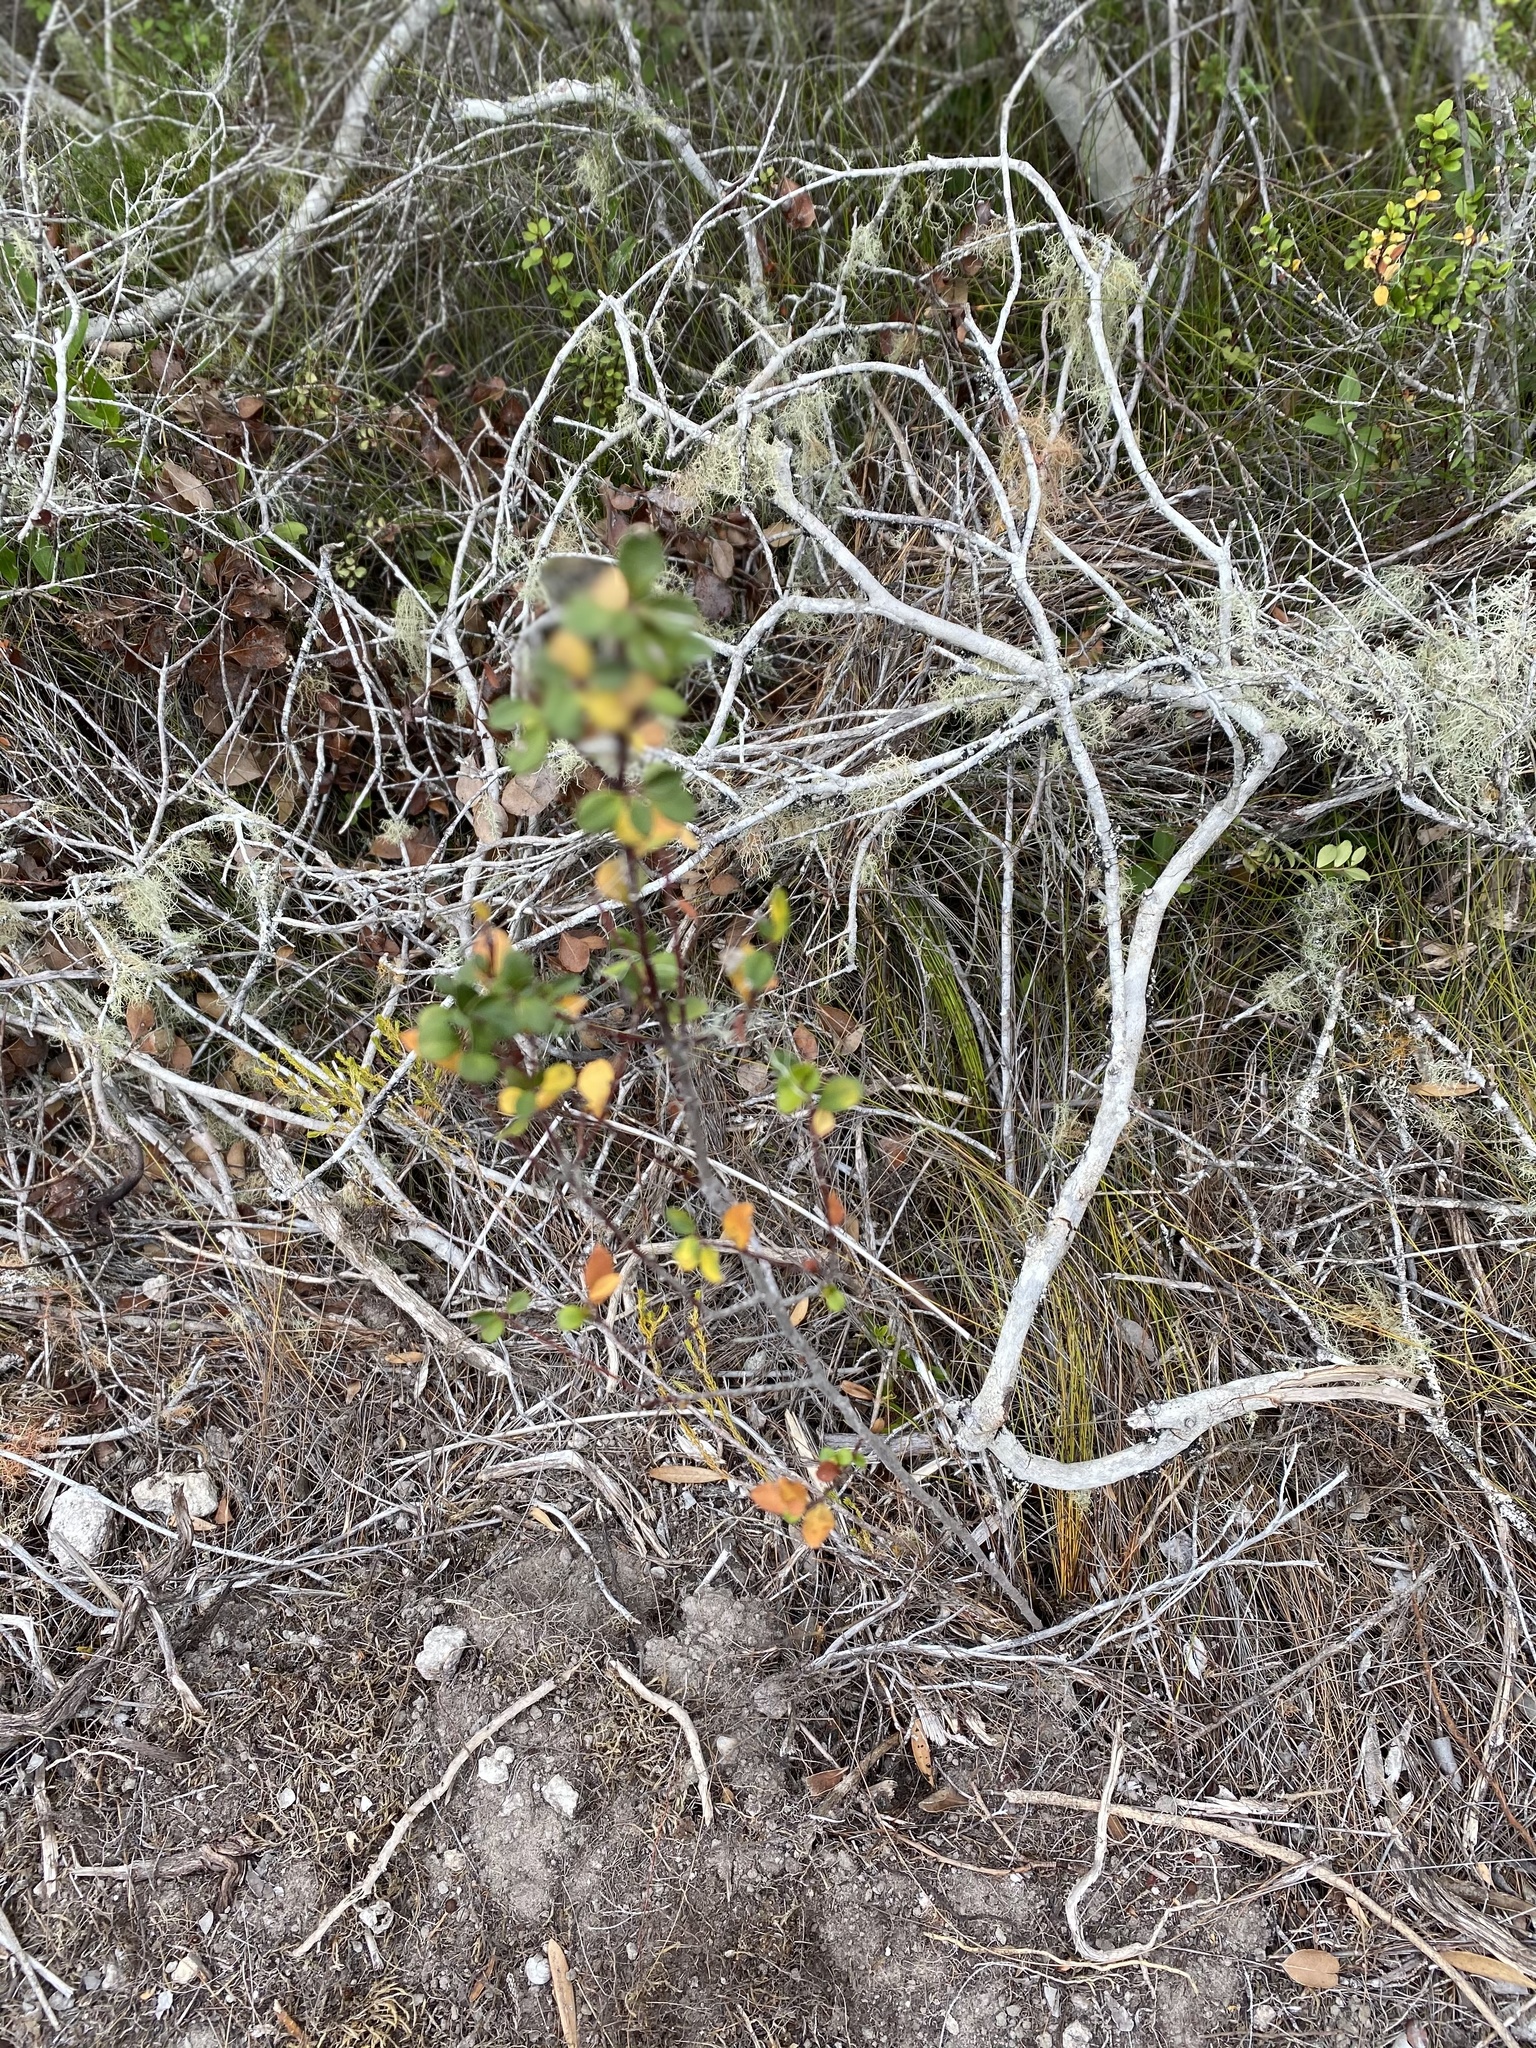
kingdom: Plantae
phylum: Tracheophyta
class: Magnoliopsida
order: Ericales
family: Primulaceae
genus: Myrsine
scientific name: Myrsine africana
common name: African-boxwood
